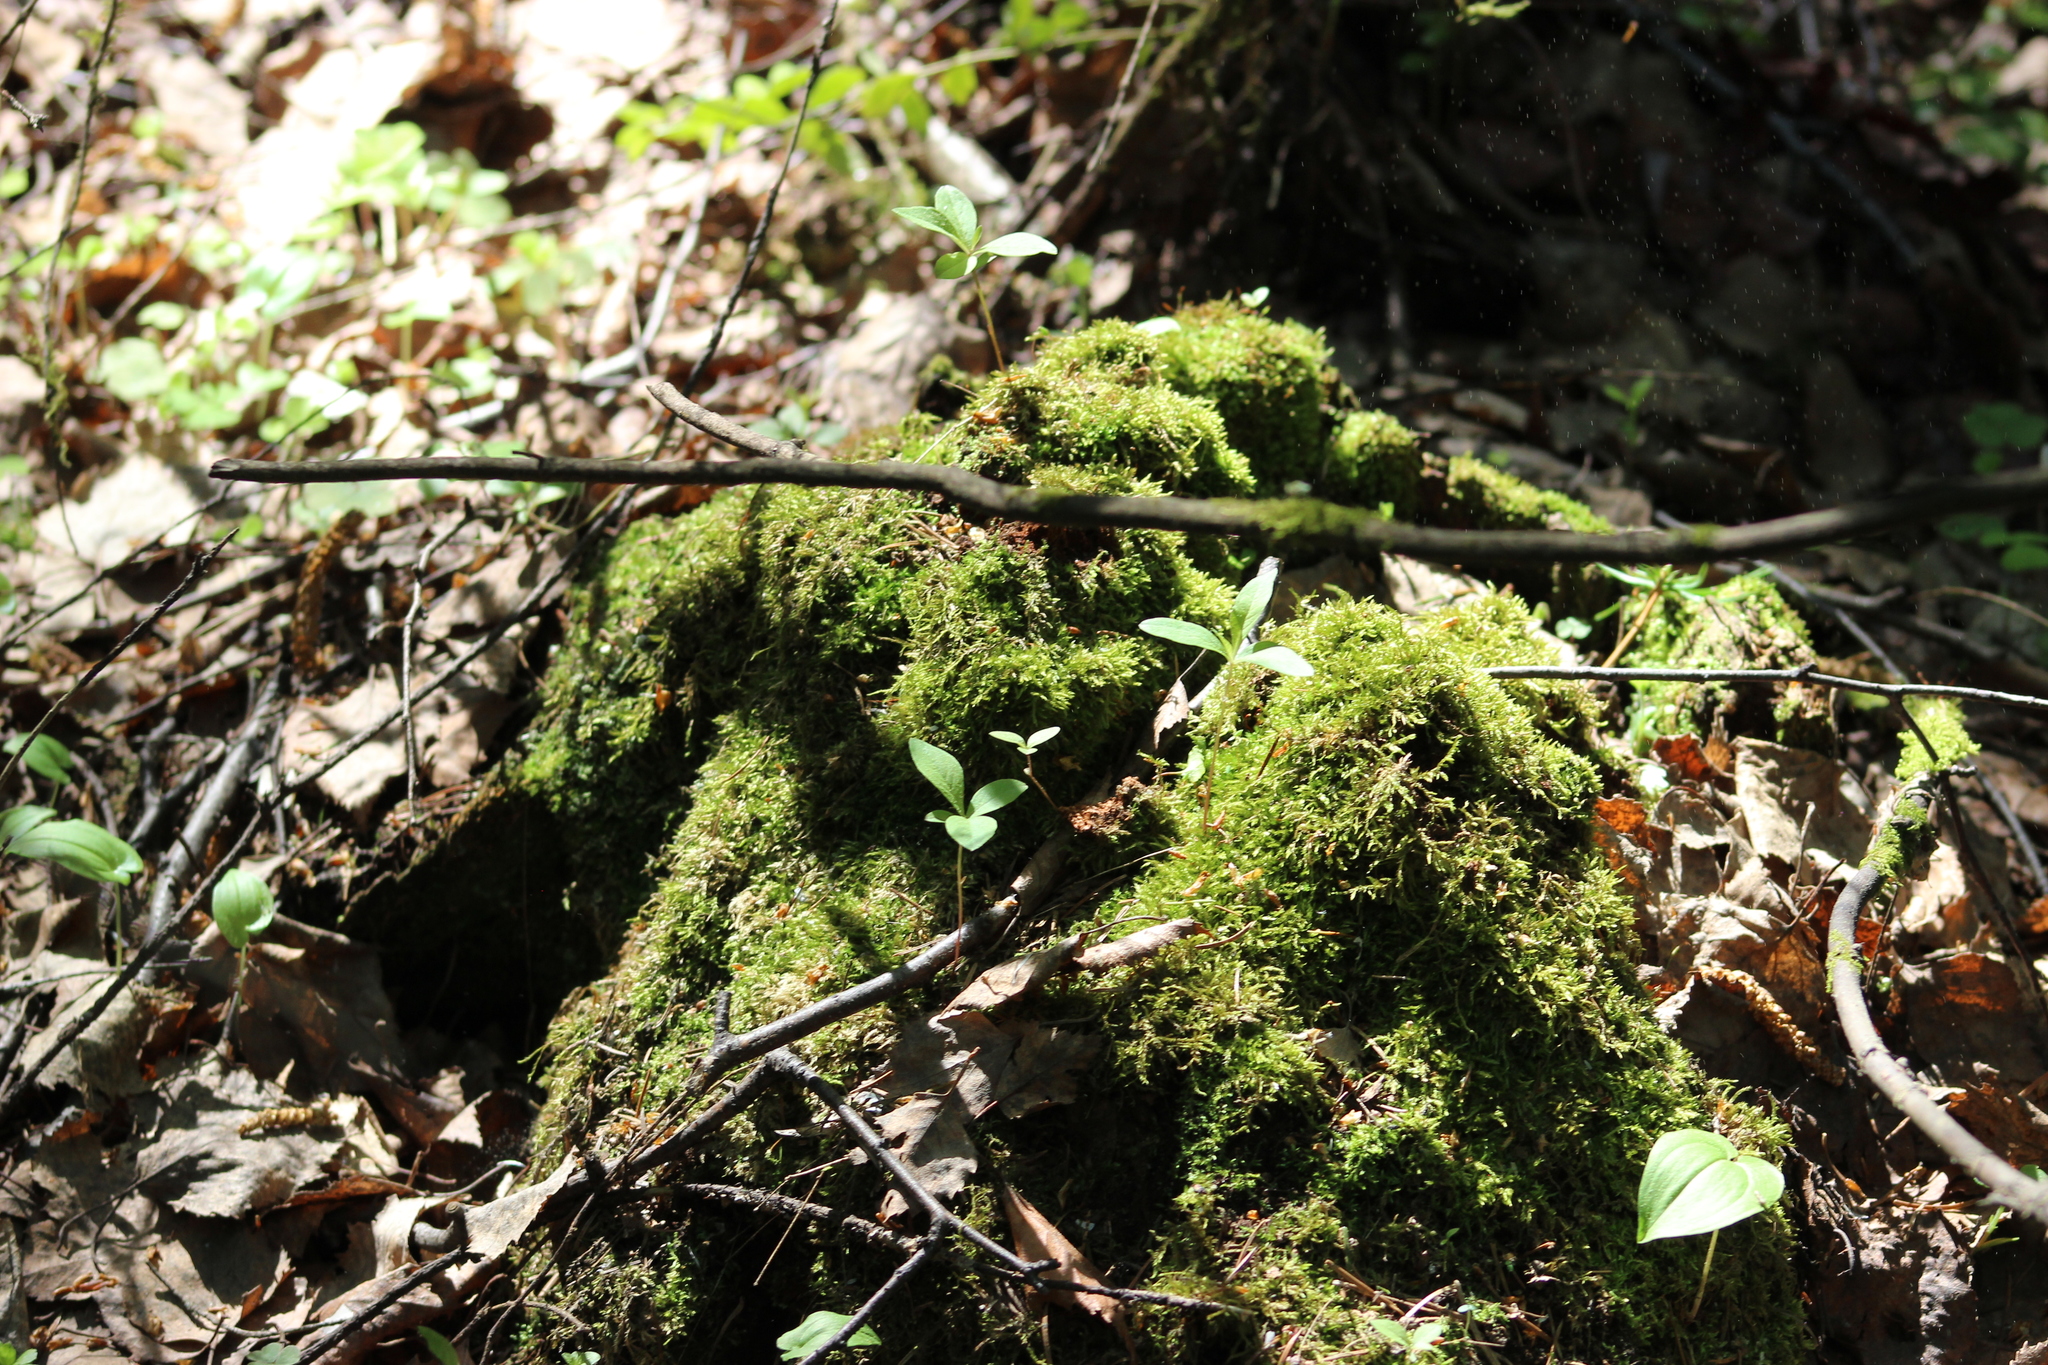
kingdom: Plantae
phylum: Tracheophyta
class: Magnoliopsida
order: Ericales
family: Primulaceae
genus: Lysimachia
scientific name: Lysimachia europaea
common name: Arctic starflower
